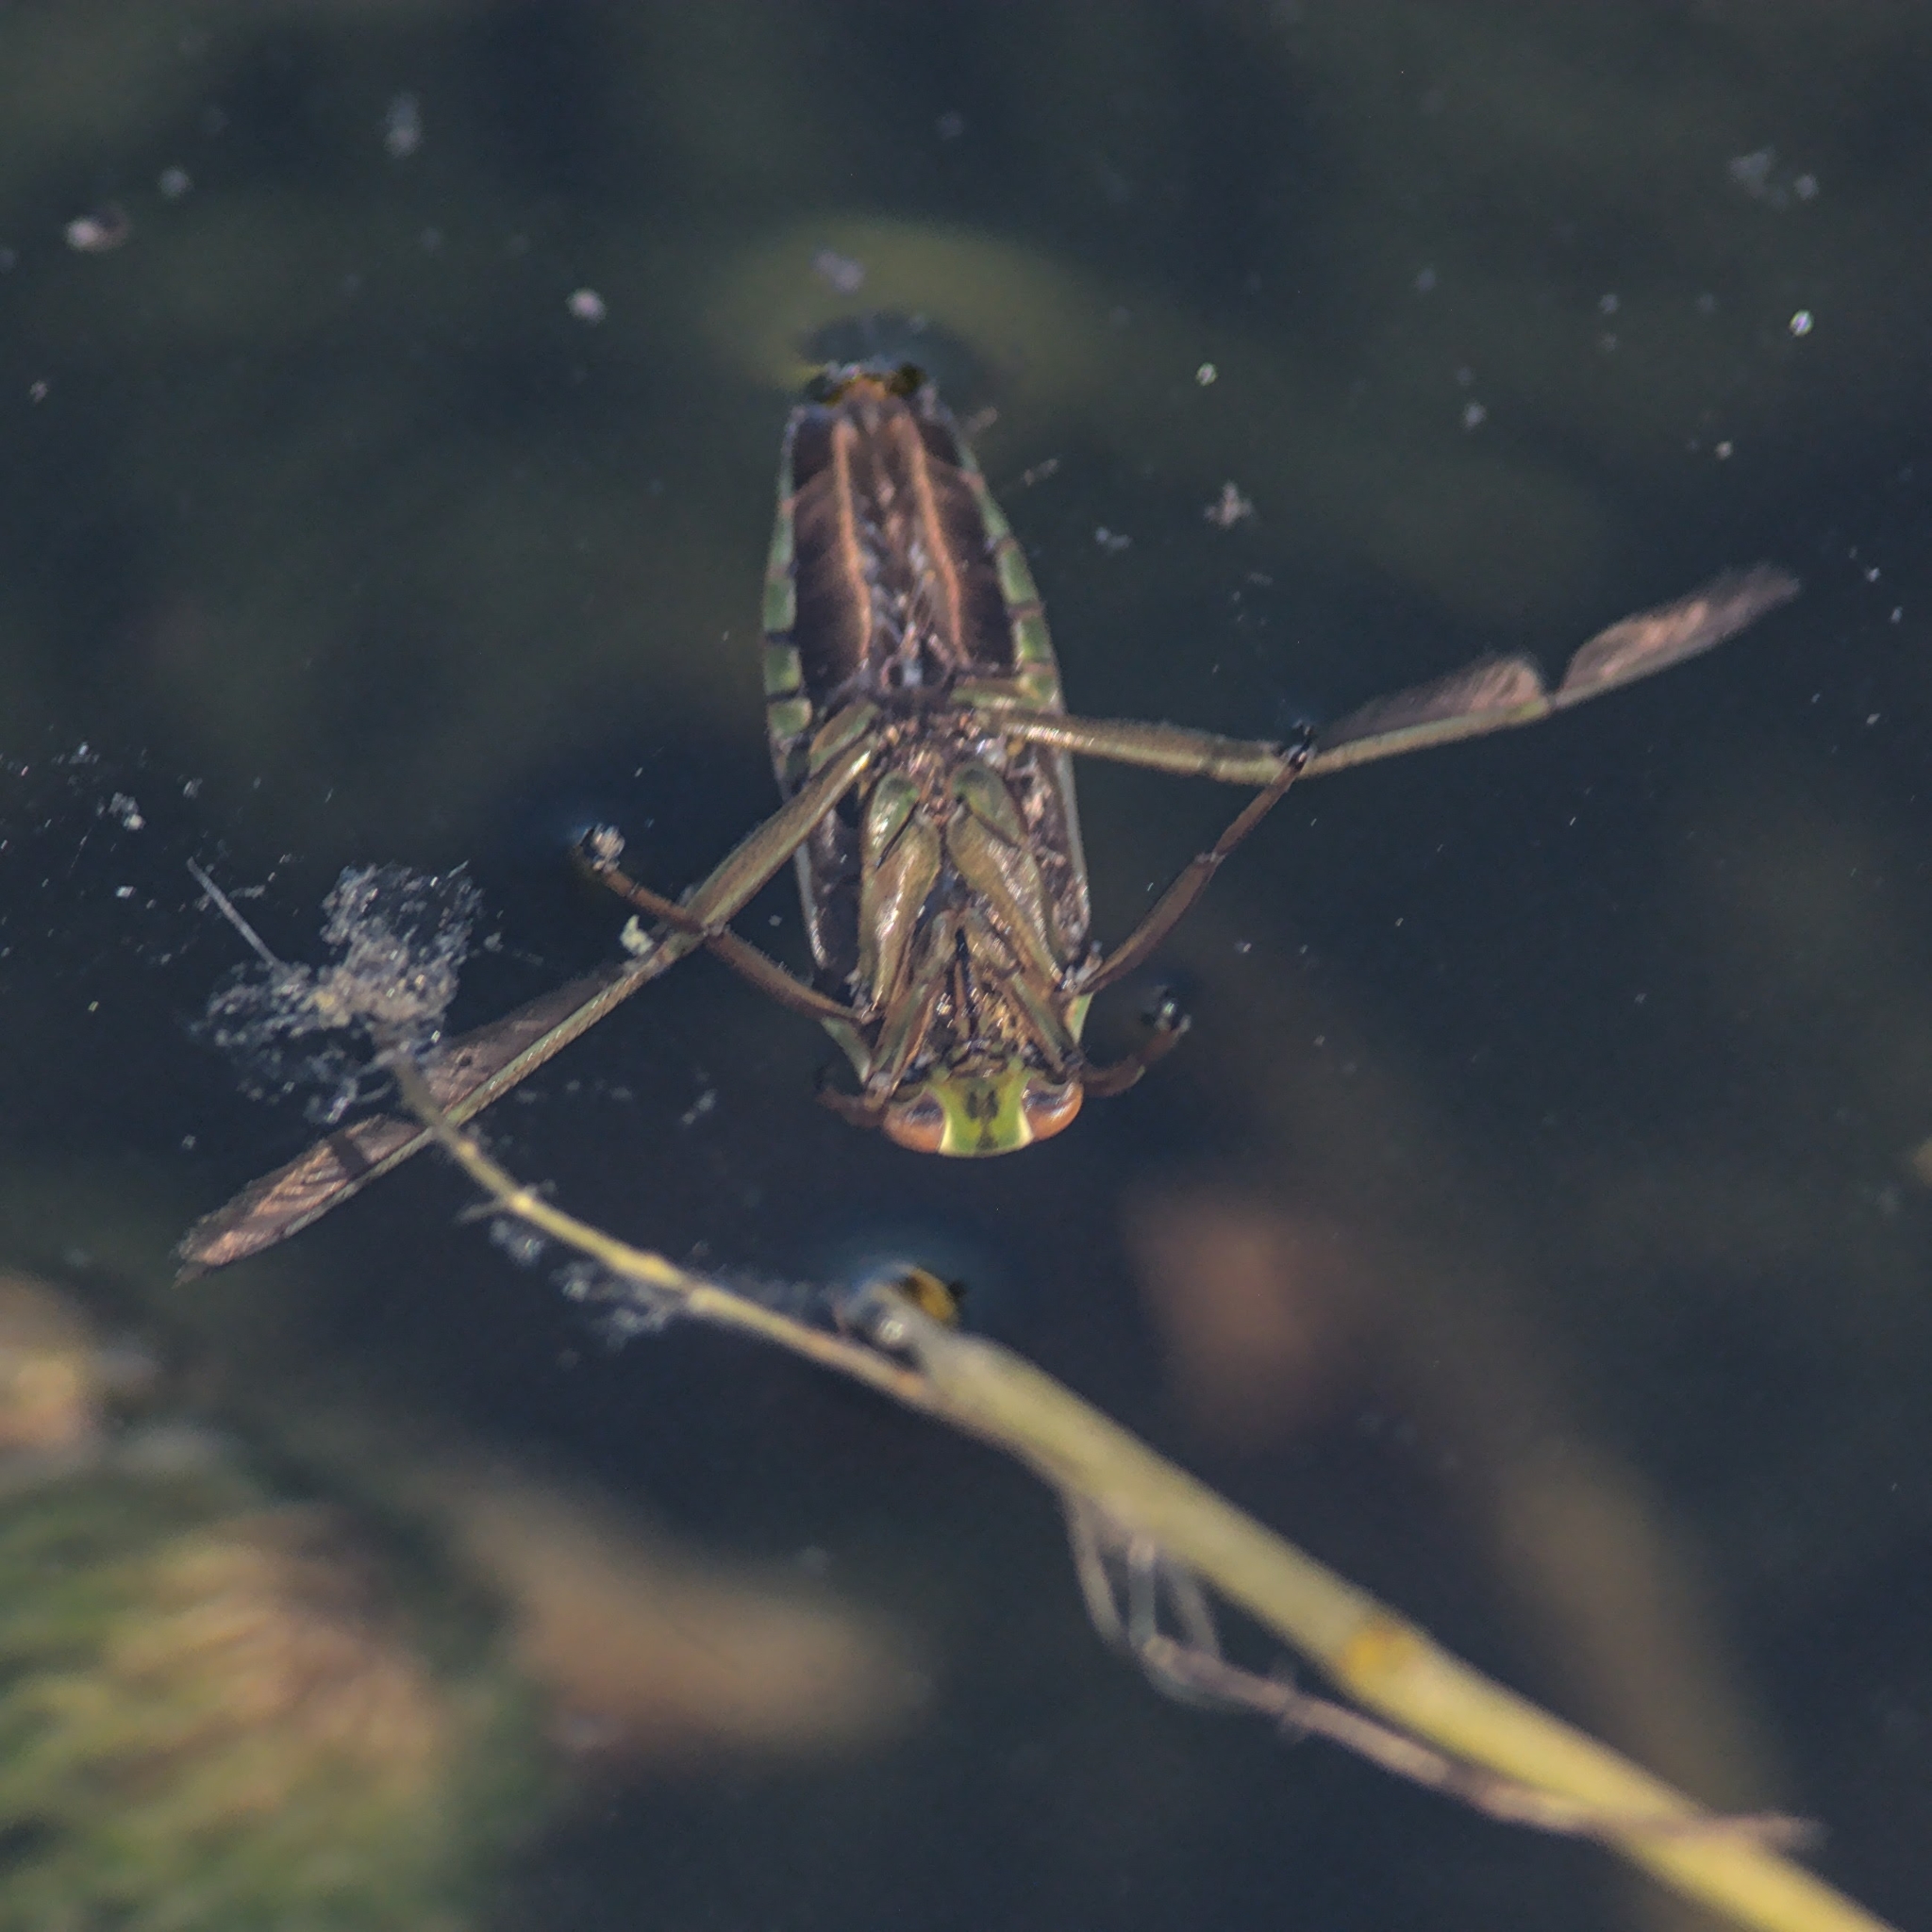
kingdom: Animalia
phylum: Arthropoda
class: Insecta
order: Hemiptera
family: Notonectidae
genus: Notonecta
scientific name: Notonecta
